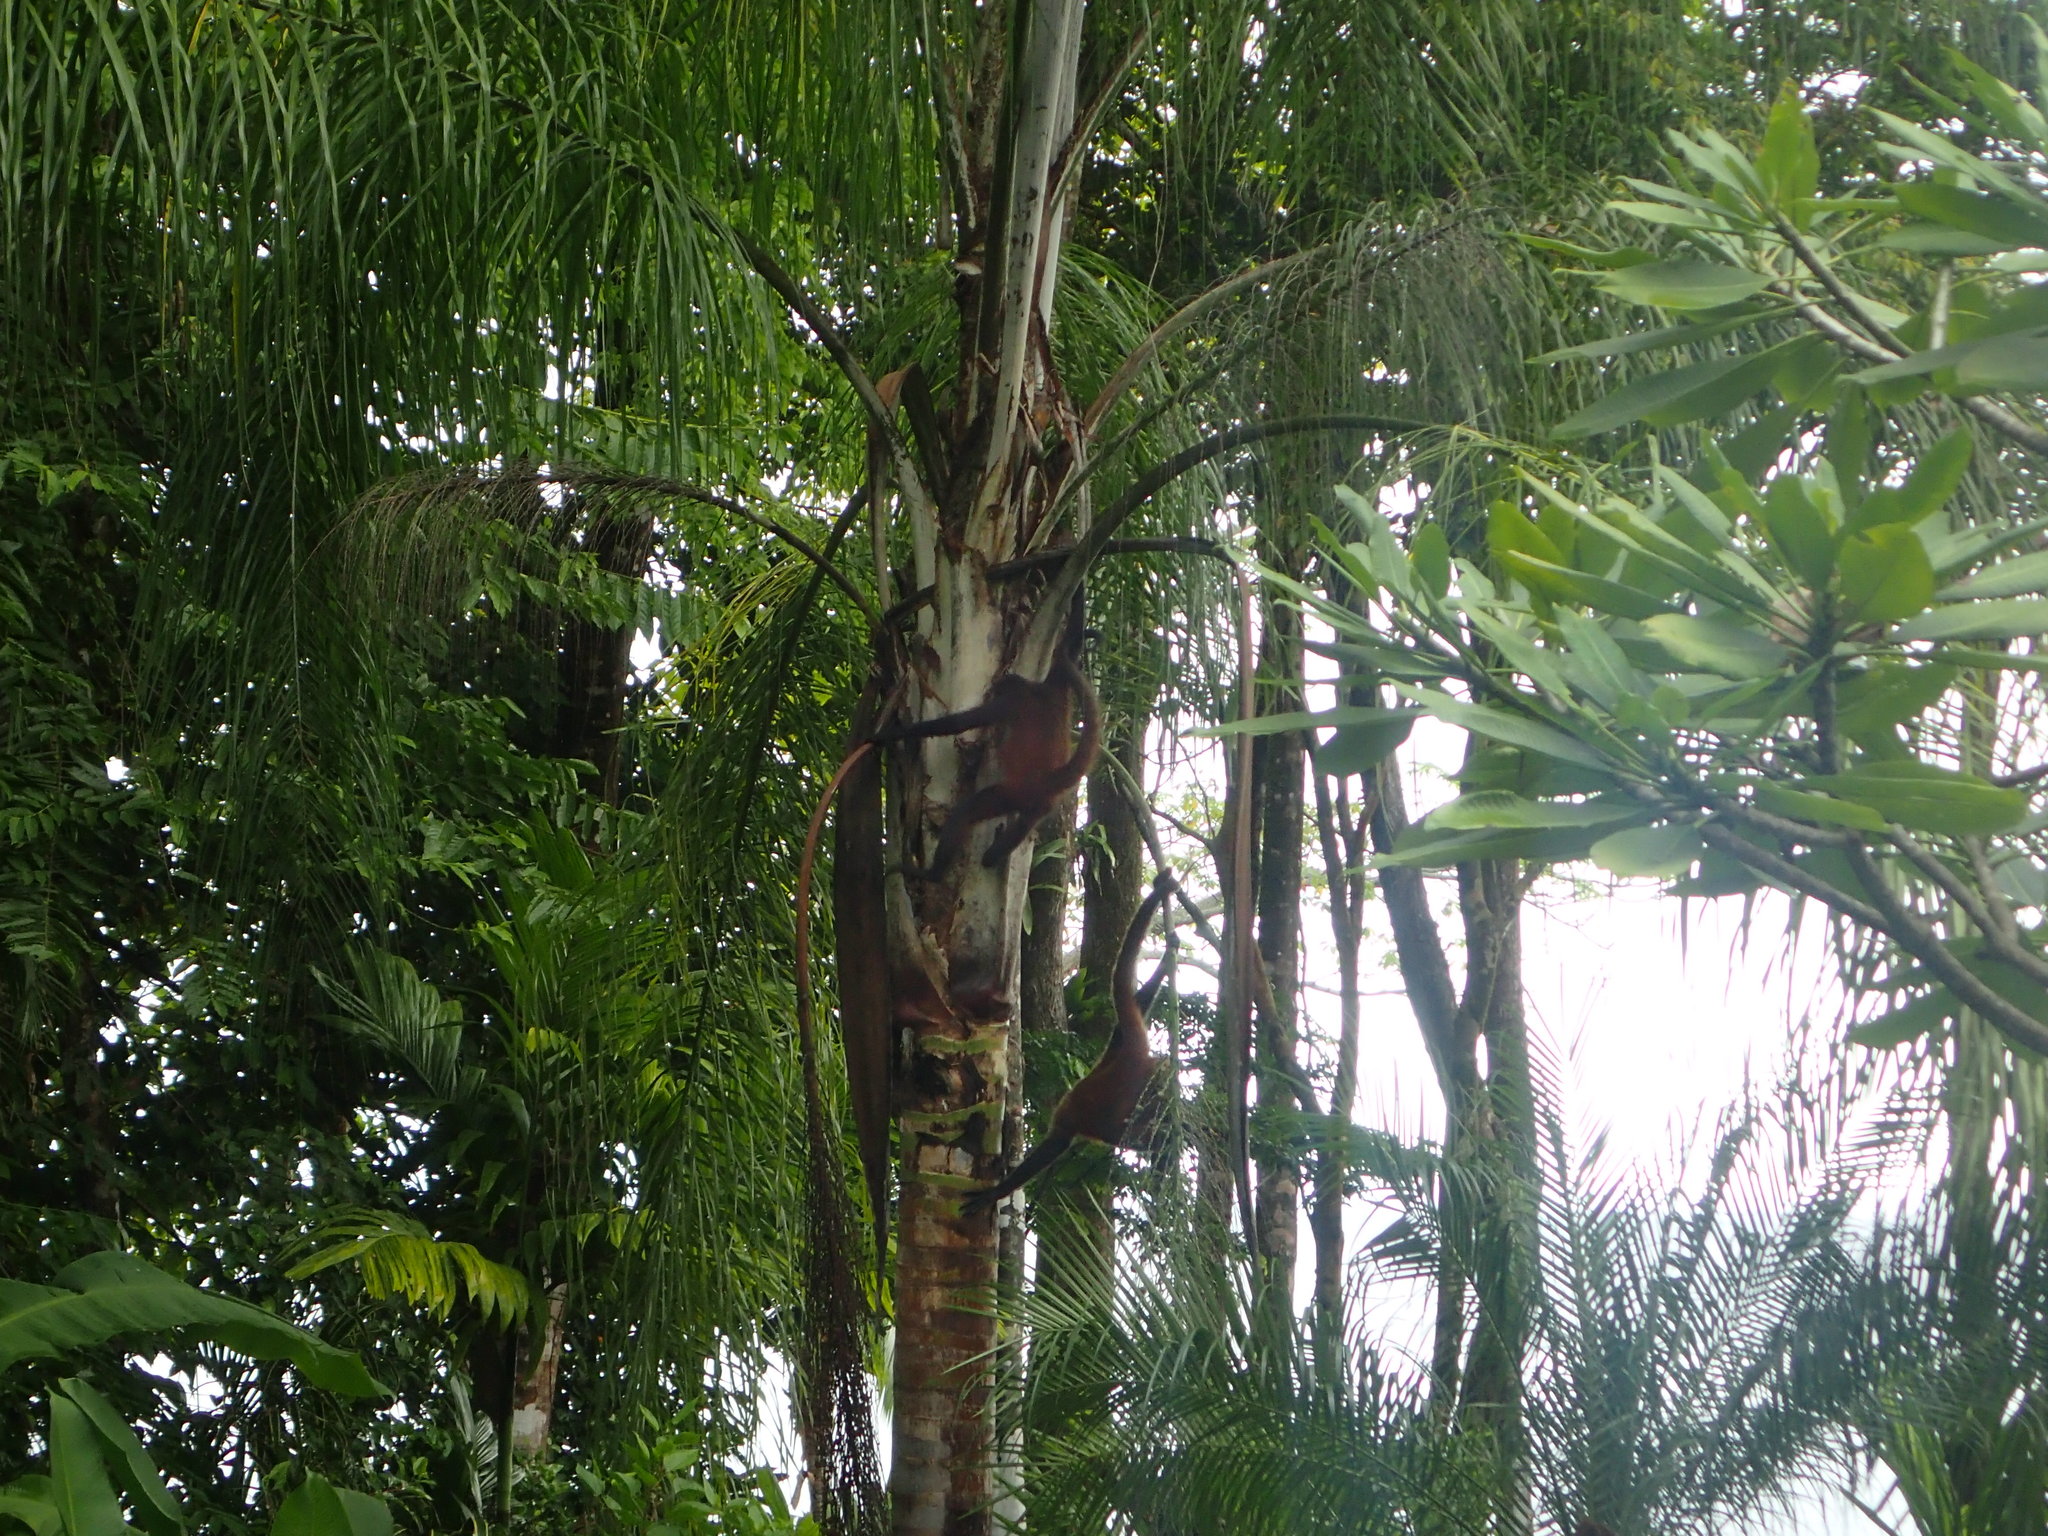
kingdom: Animalia
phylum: Chordata
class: Mammalia
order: Primates
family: Atelidae
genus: Ateles
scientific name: Ateles geoffroyi
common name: Black-handed spider monkey
